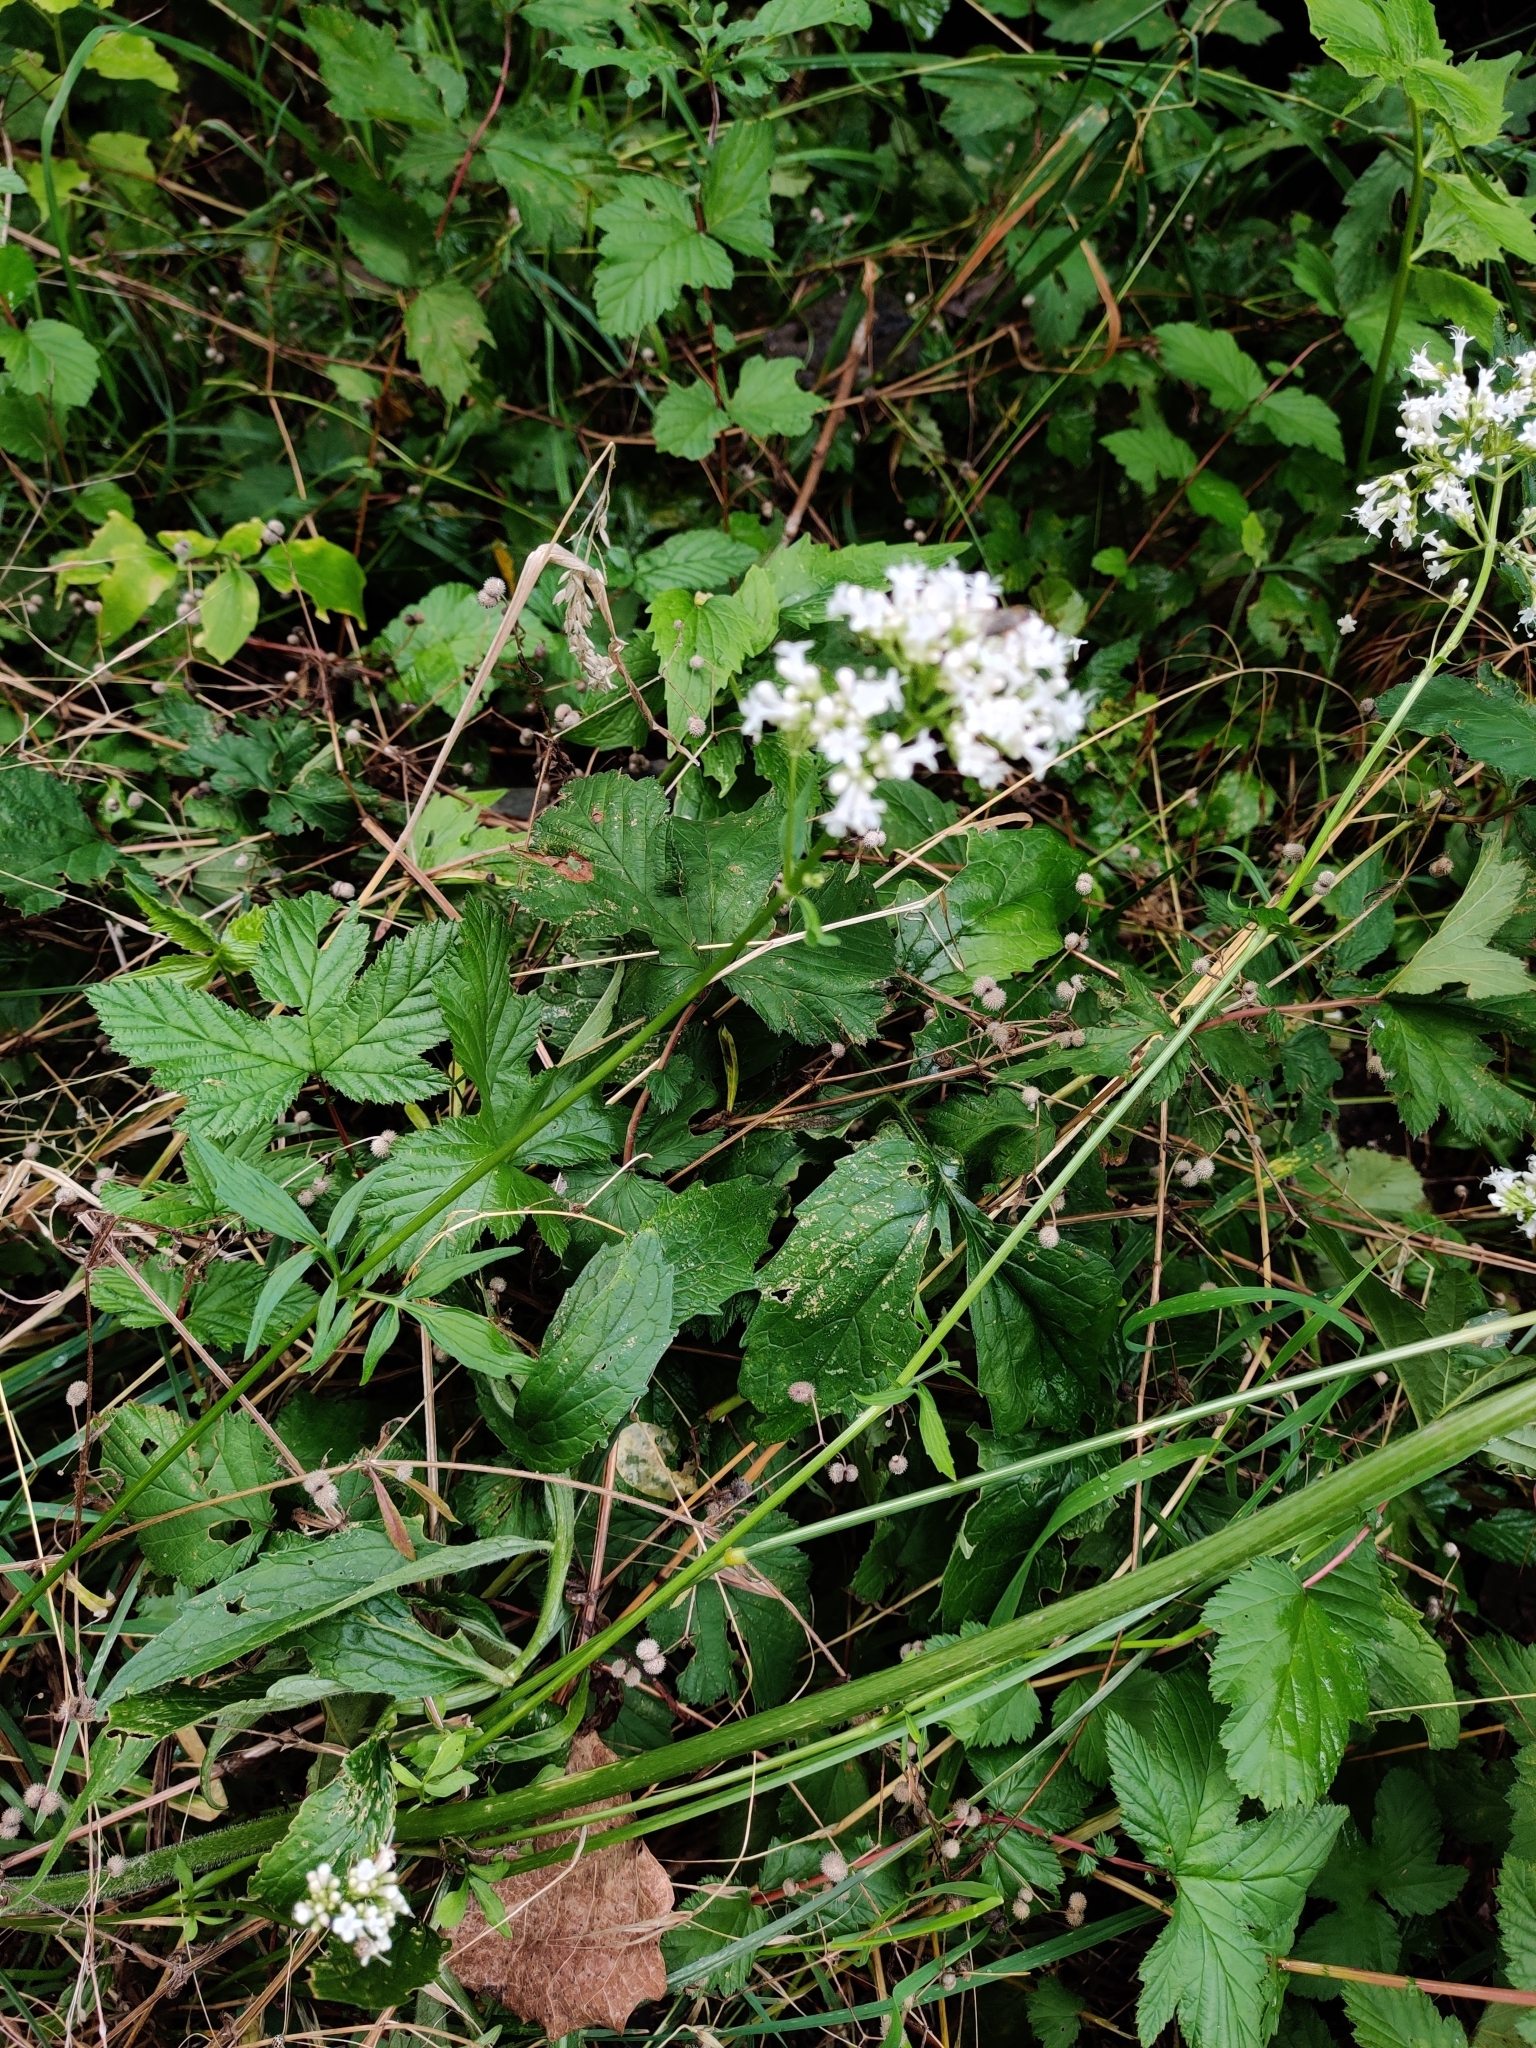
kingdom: Plantae
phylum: Tracheophyta
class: Magnoliopsida
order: Dipsacales
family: Caprifoliaceae
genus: Valeriana
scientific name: Valeriana officinalis
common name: Common valerian
